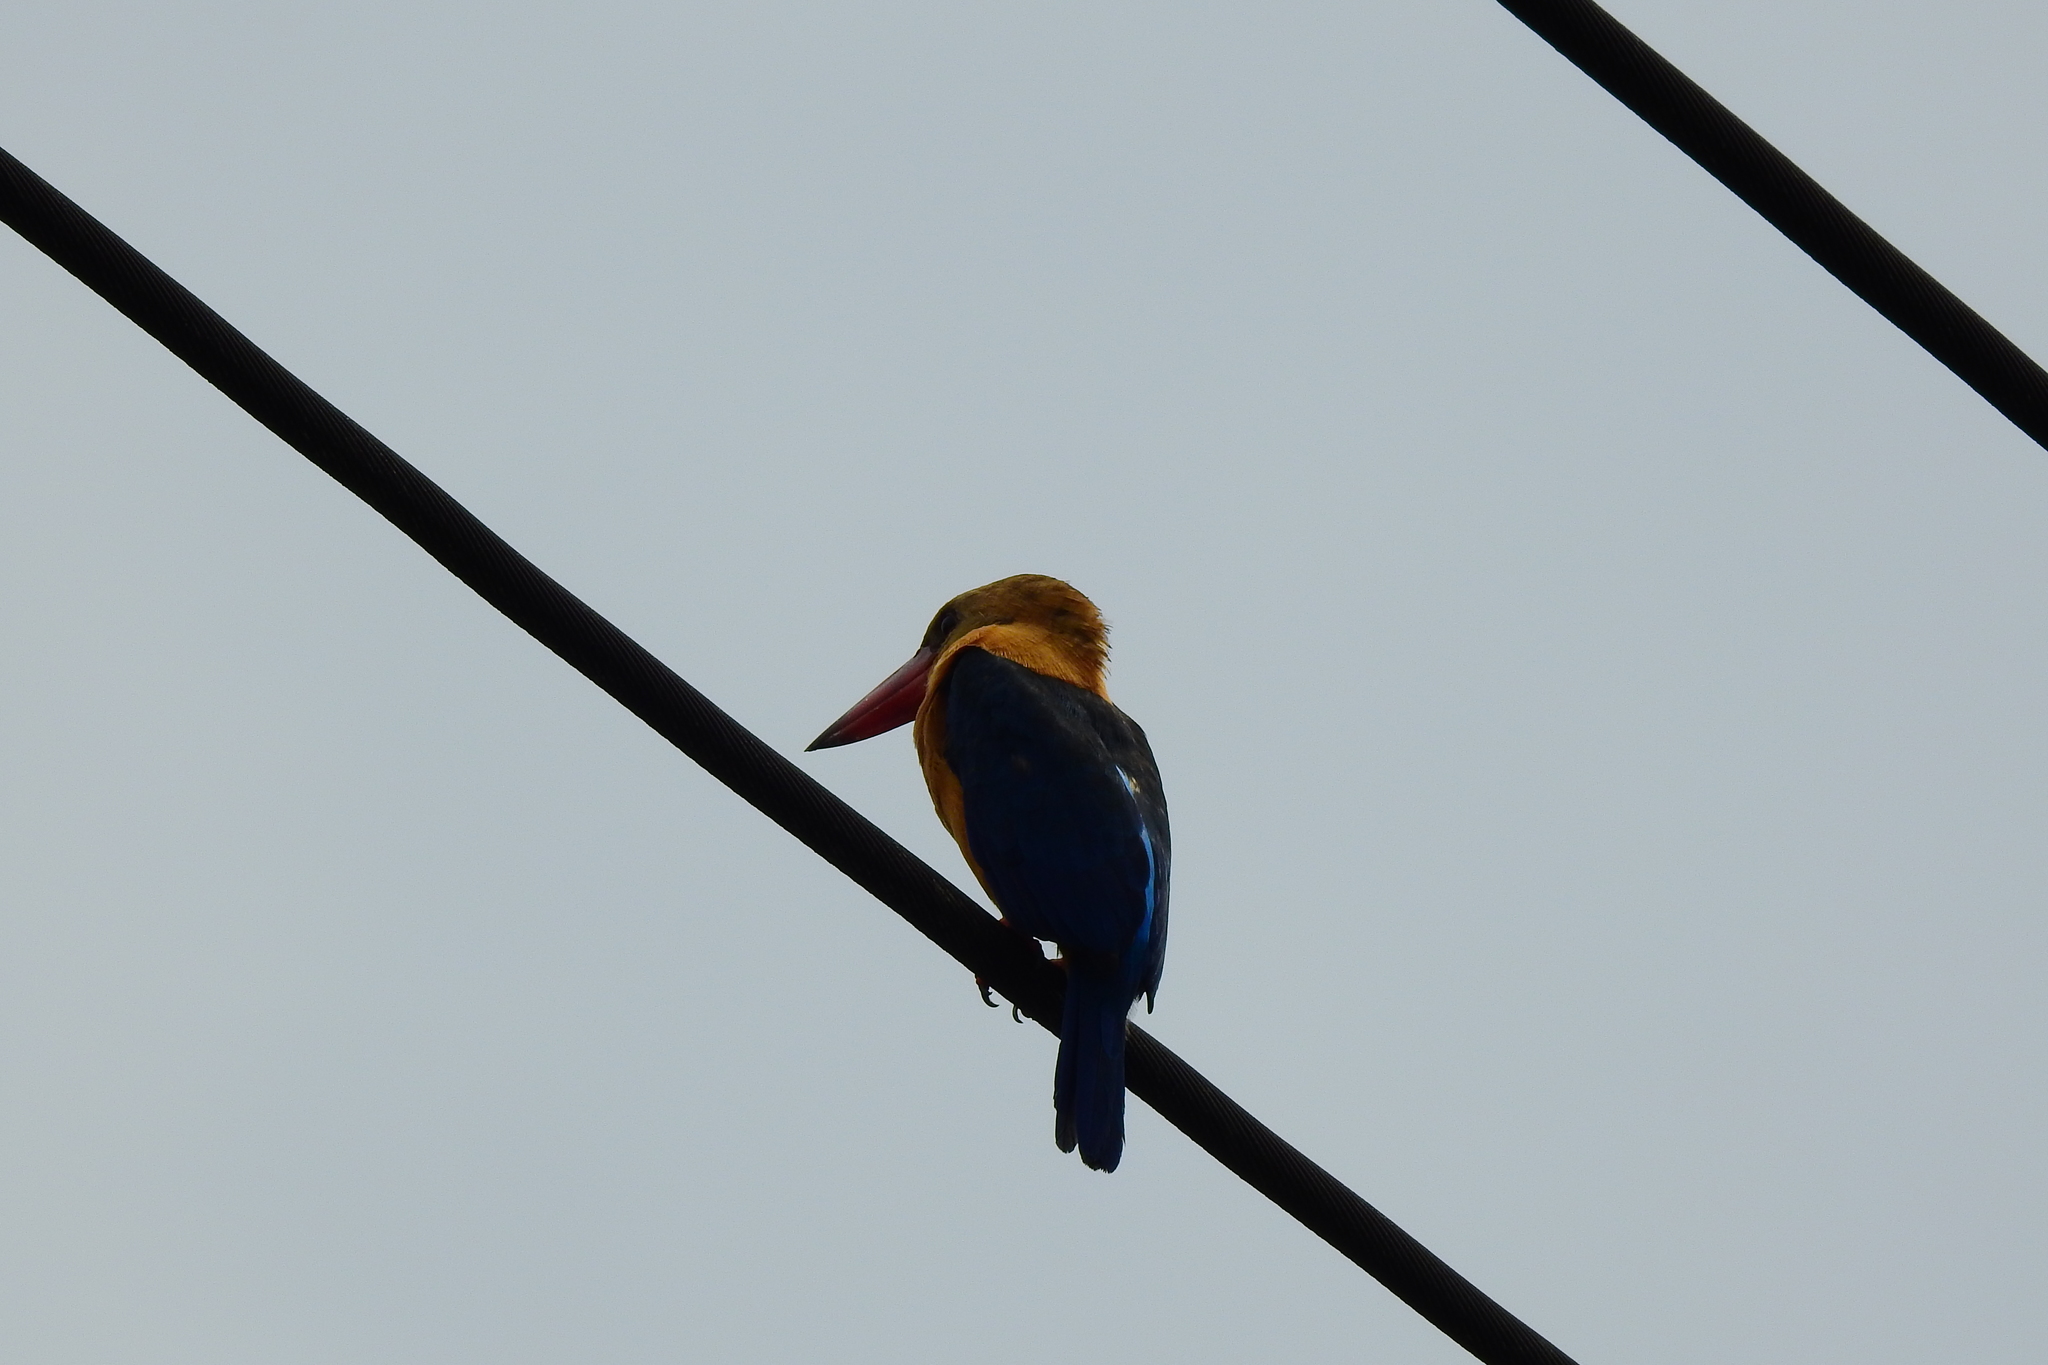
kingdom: Animalia
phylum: Chordata
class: Aves
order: Coraciiformes
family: Alcedinidae
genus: Pelargopsis
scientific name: Pelargopsis capensis
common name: Stork-billed kingfisher
